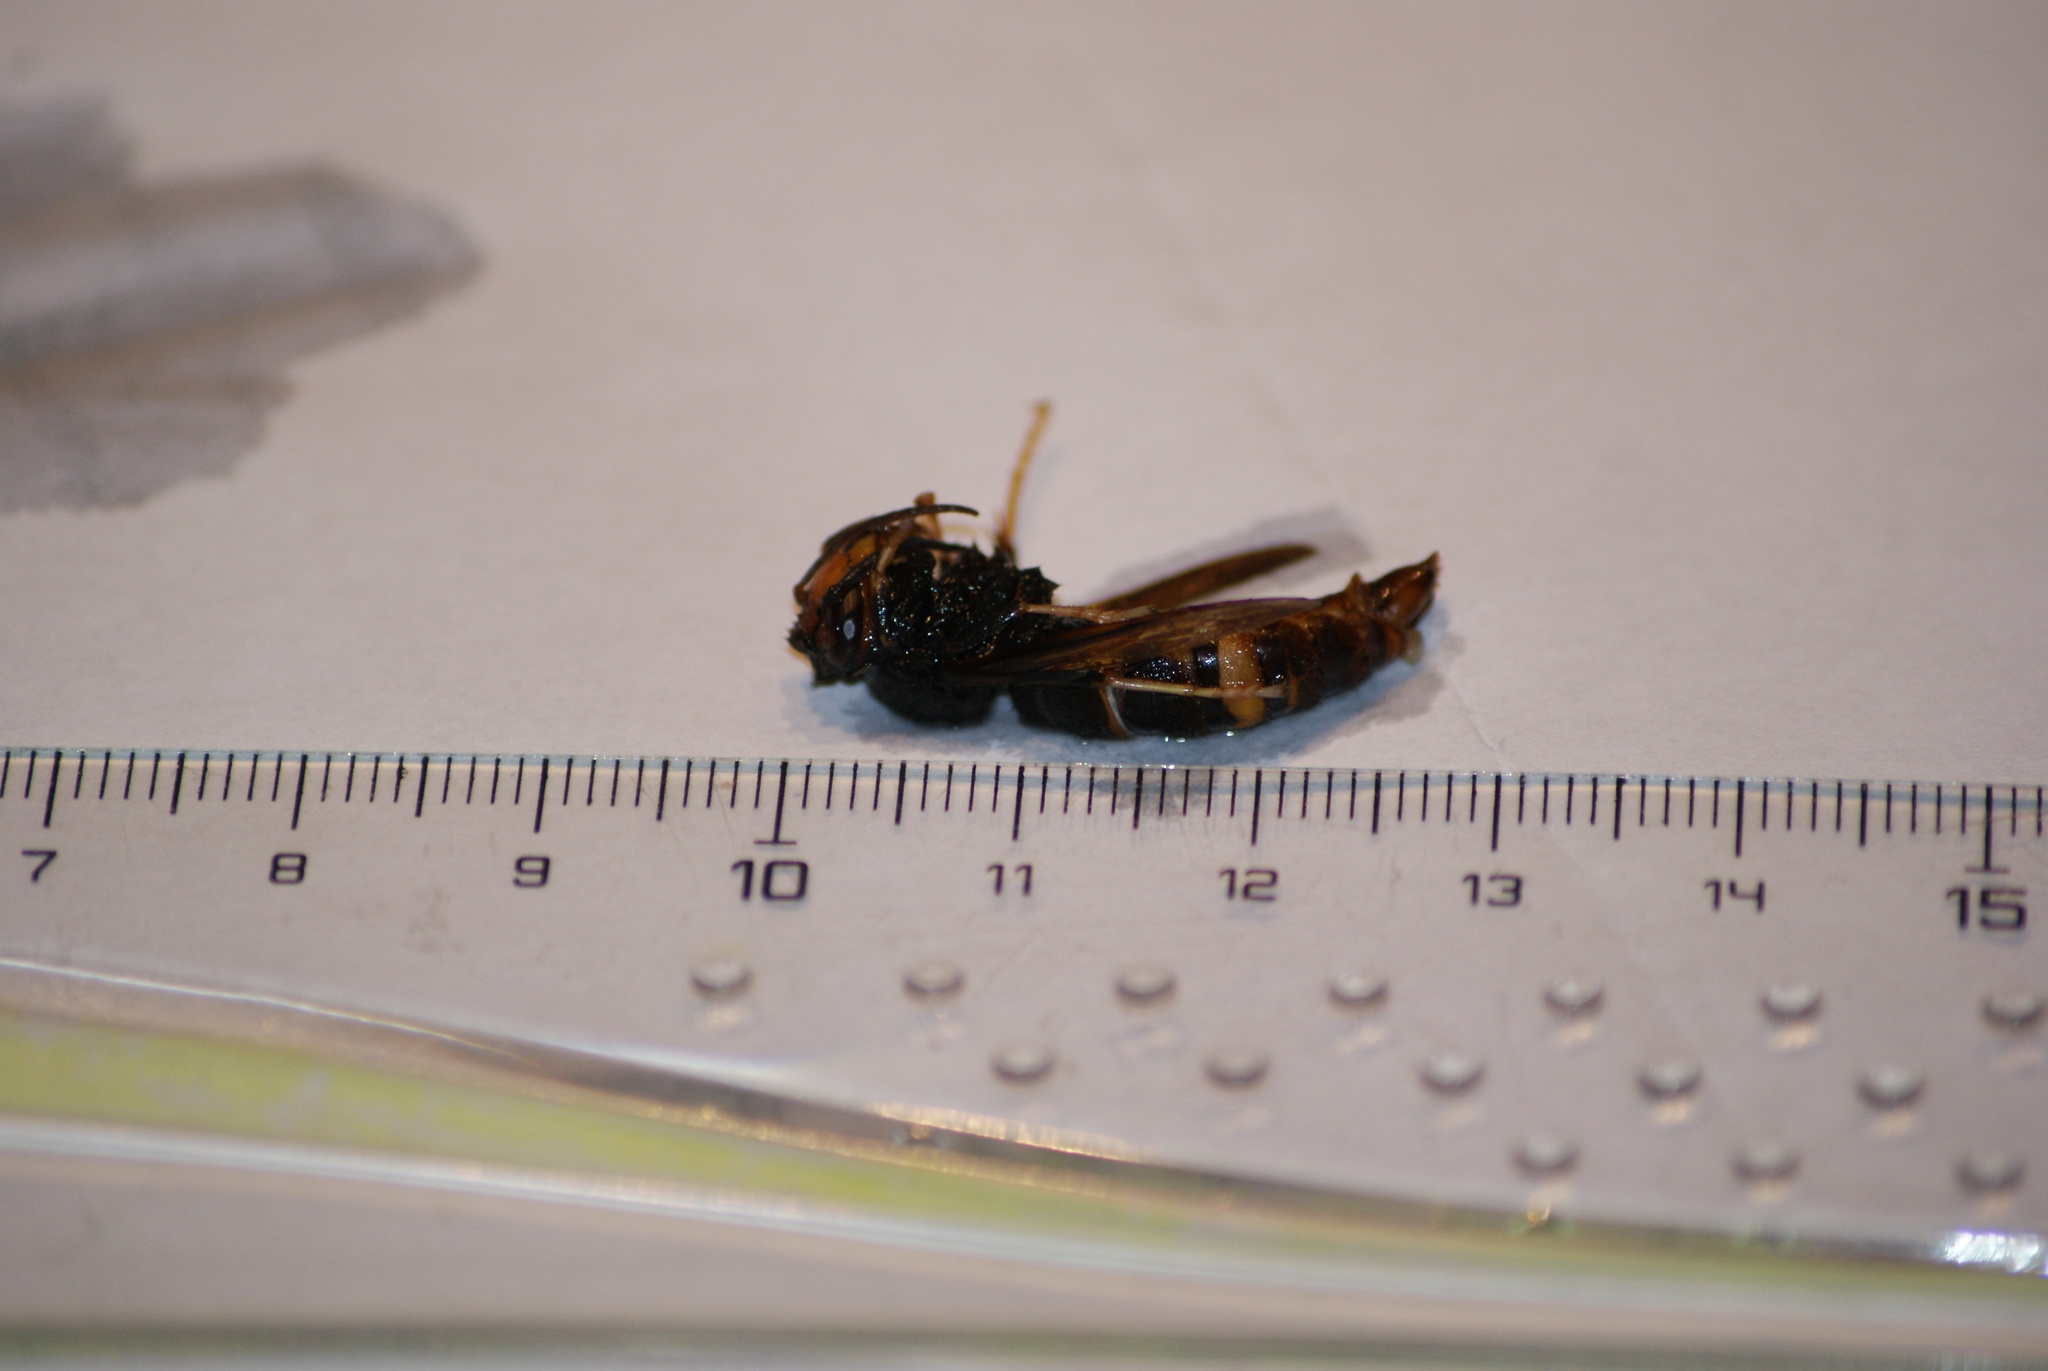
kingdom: Animalia
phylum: Arthropoda
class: Insecta
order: Hymenoptera
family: Vespidae
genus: Vespa
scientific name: Vespa velutina
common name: Asian hornet
